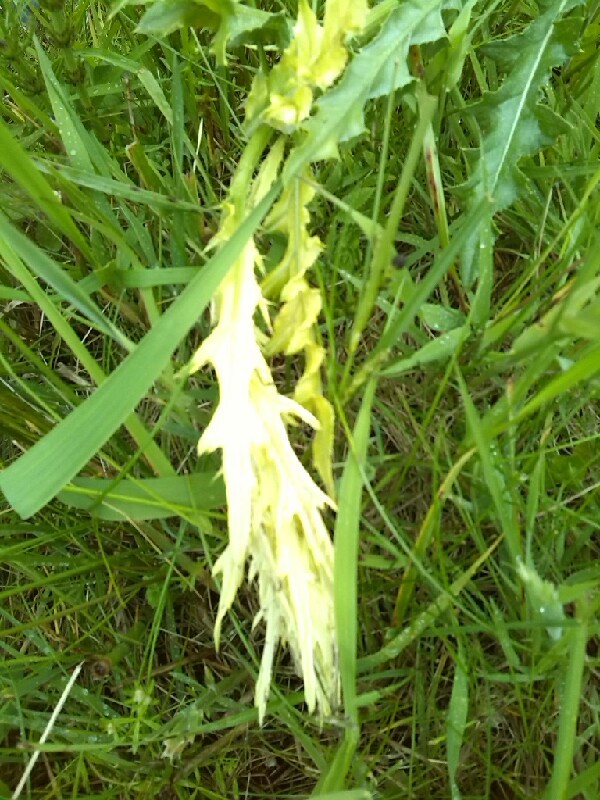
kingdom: Bacteria
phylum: Proteobacteria
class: Gammaproteobacteria
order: Pseudomonadales
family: Pseudomonadaceae
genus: Pseudomonas
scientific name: Pseudomonas syringae
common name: Bacterial speck
